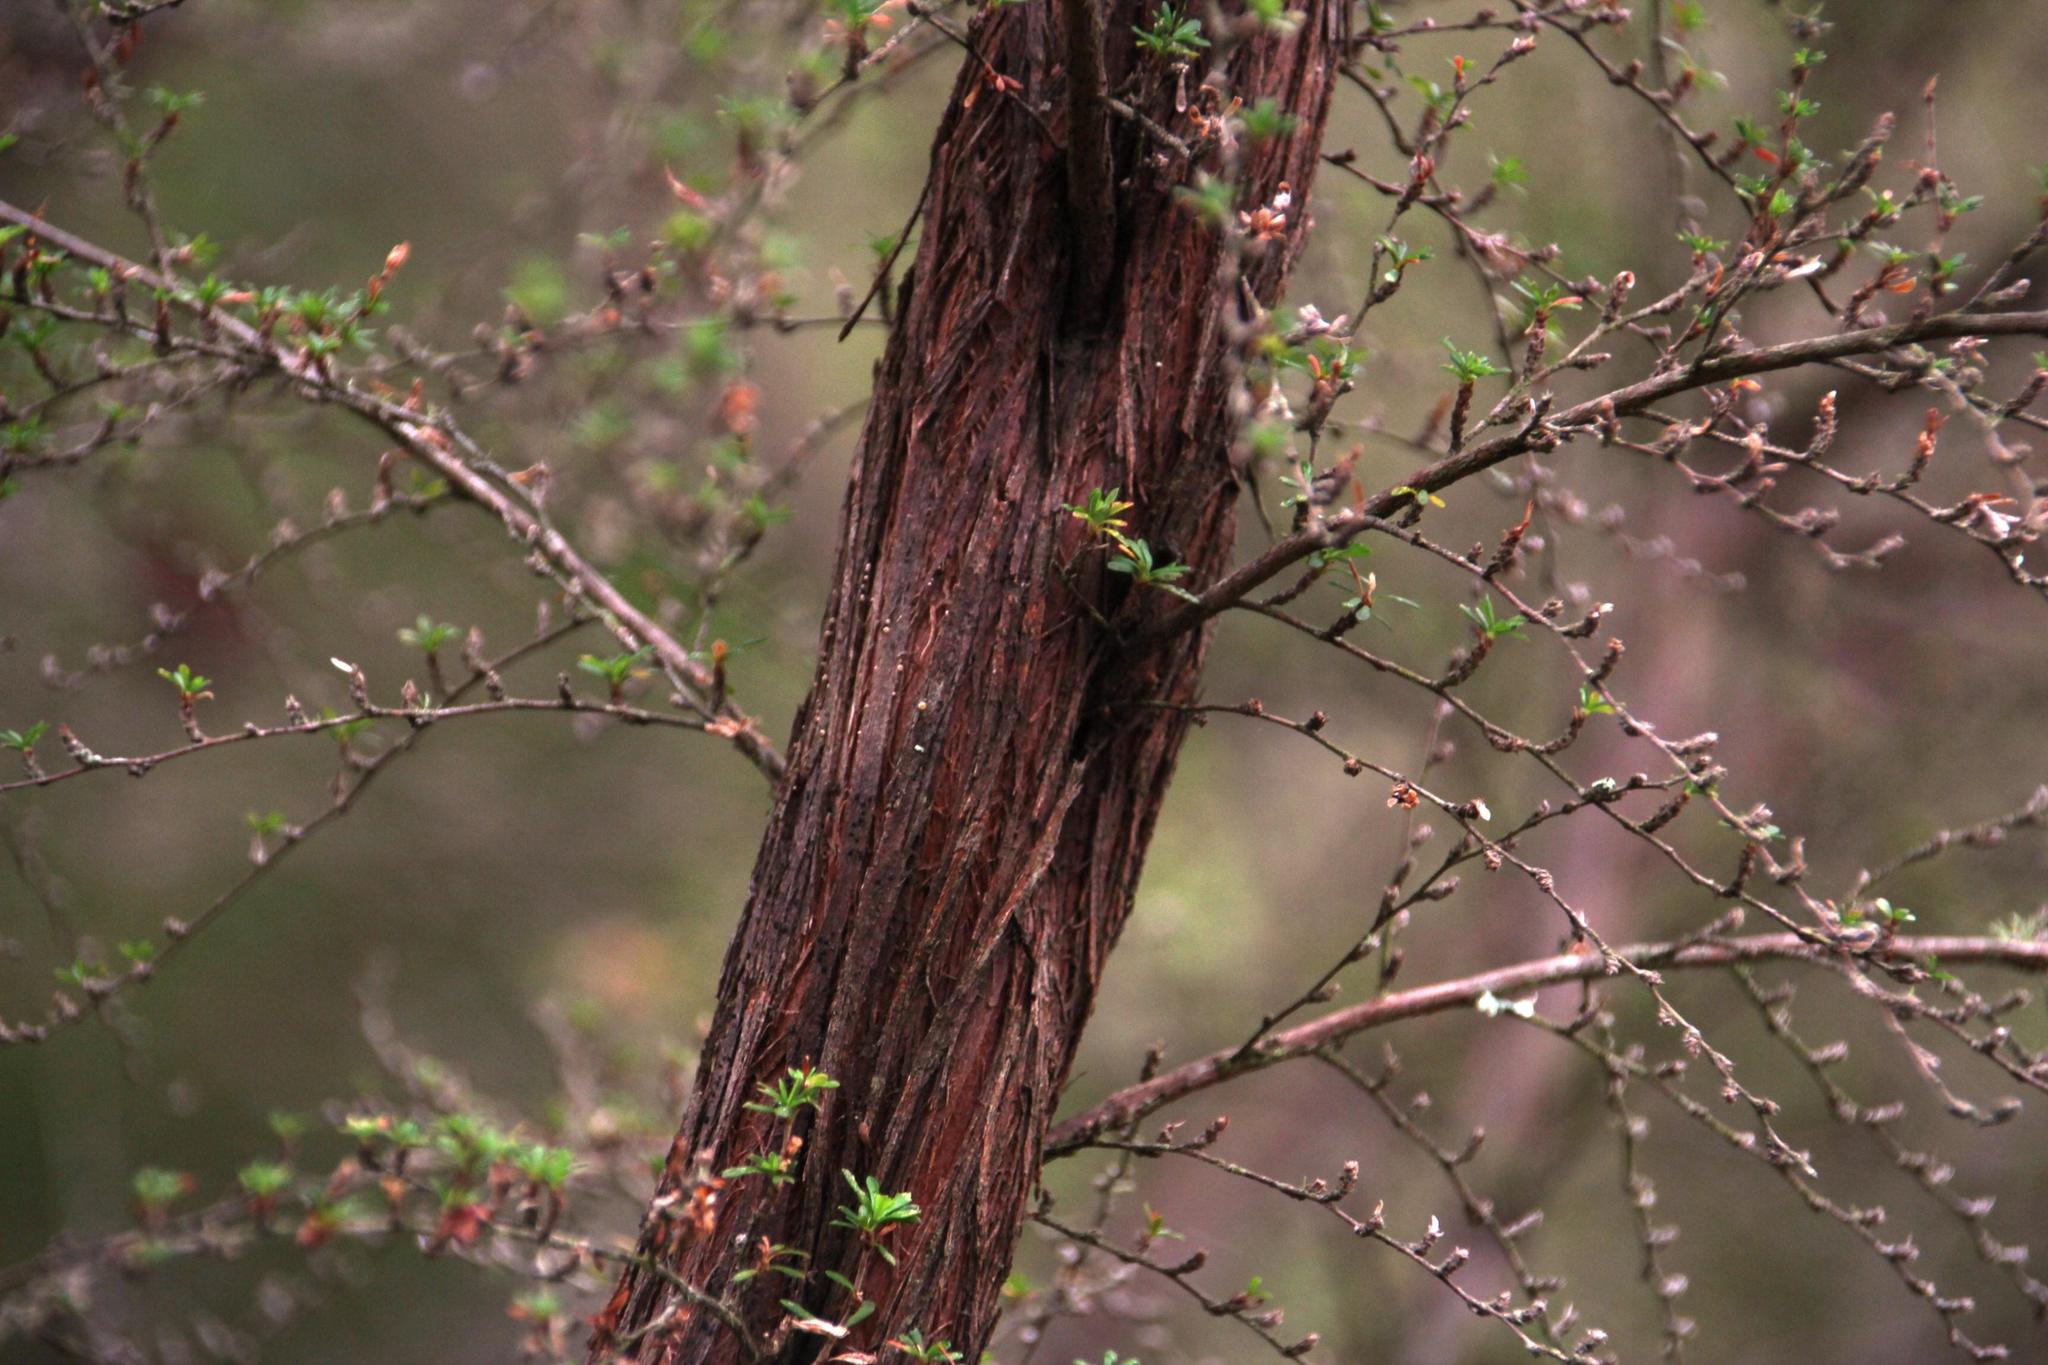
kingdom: Plantae
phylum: Tracheophyta
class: Magnoliopsida
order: Rosales
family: Rosaceae
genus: Cliffortia
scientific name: Cliffortia serpyllifolia
